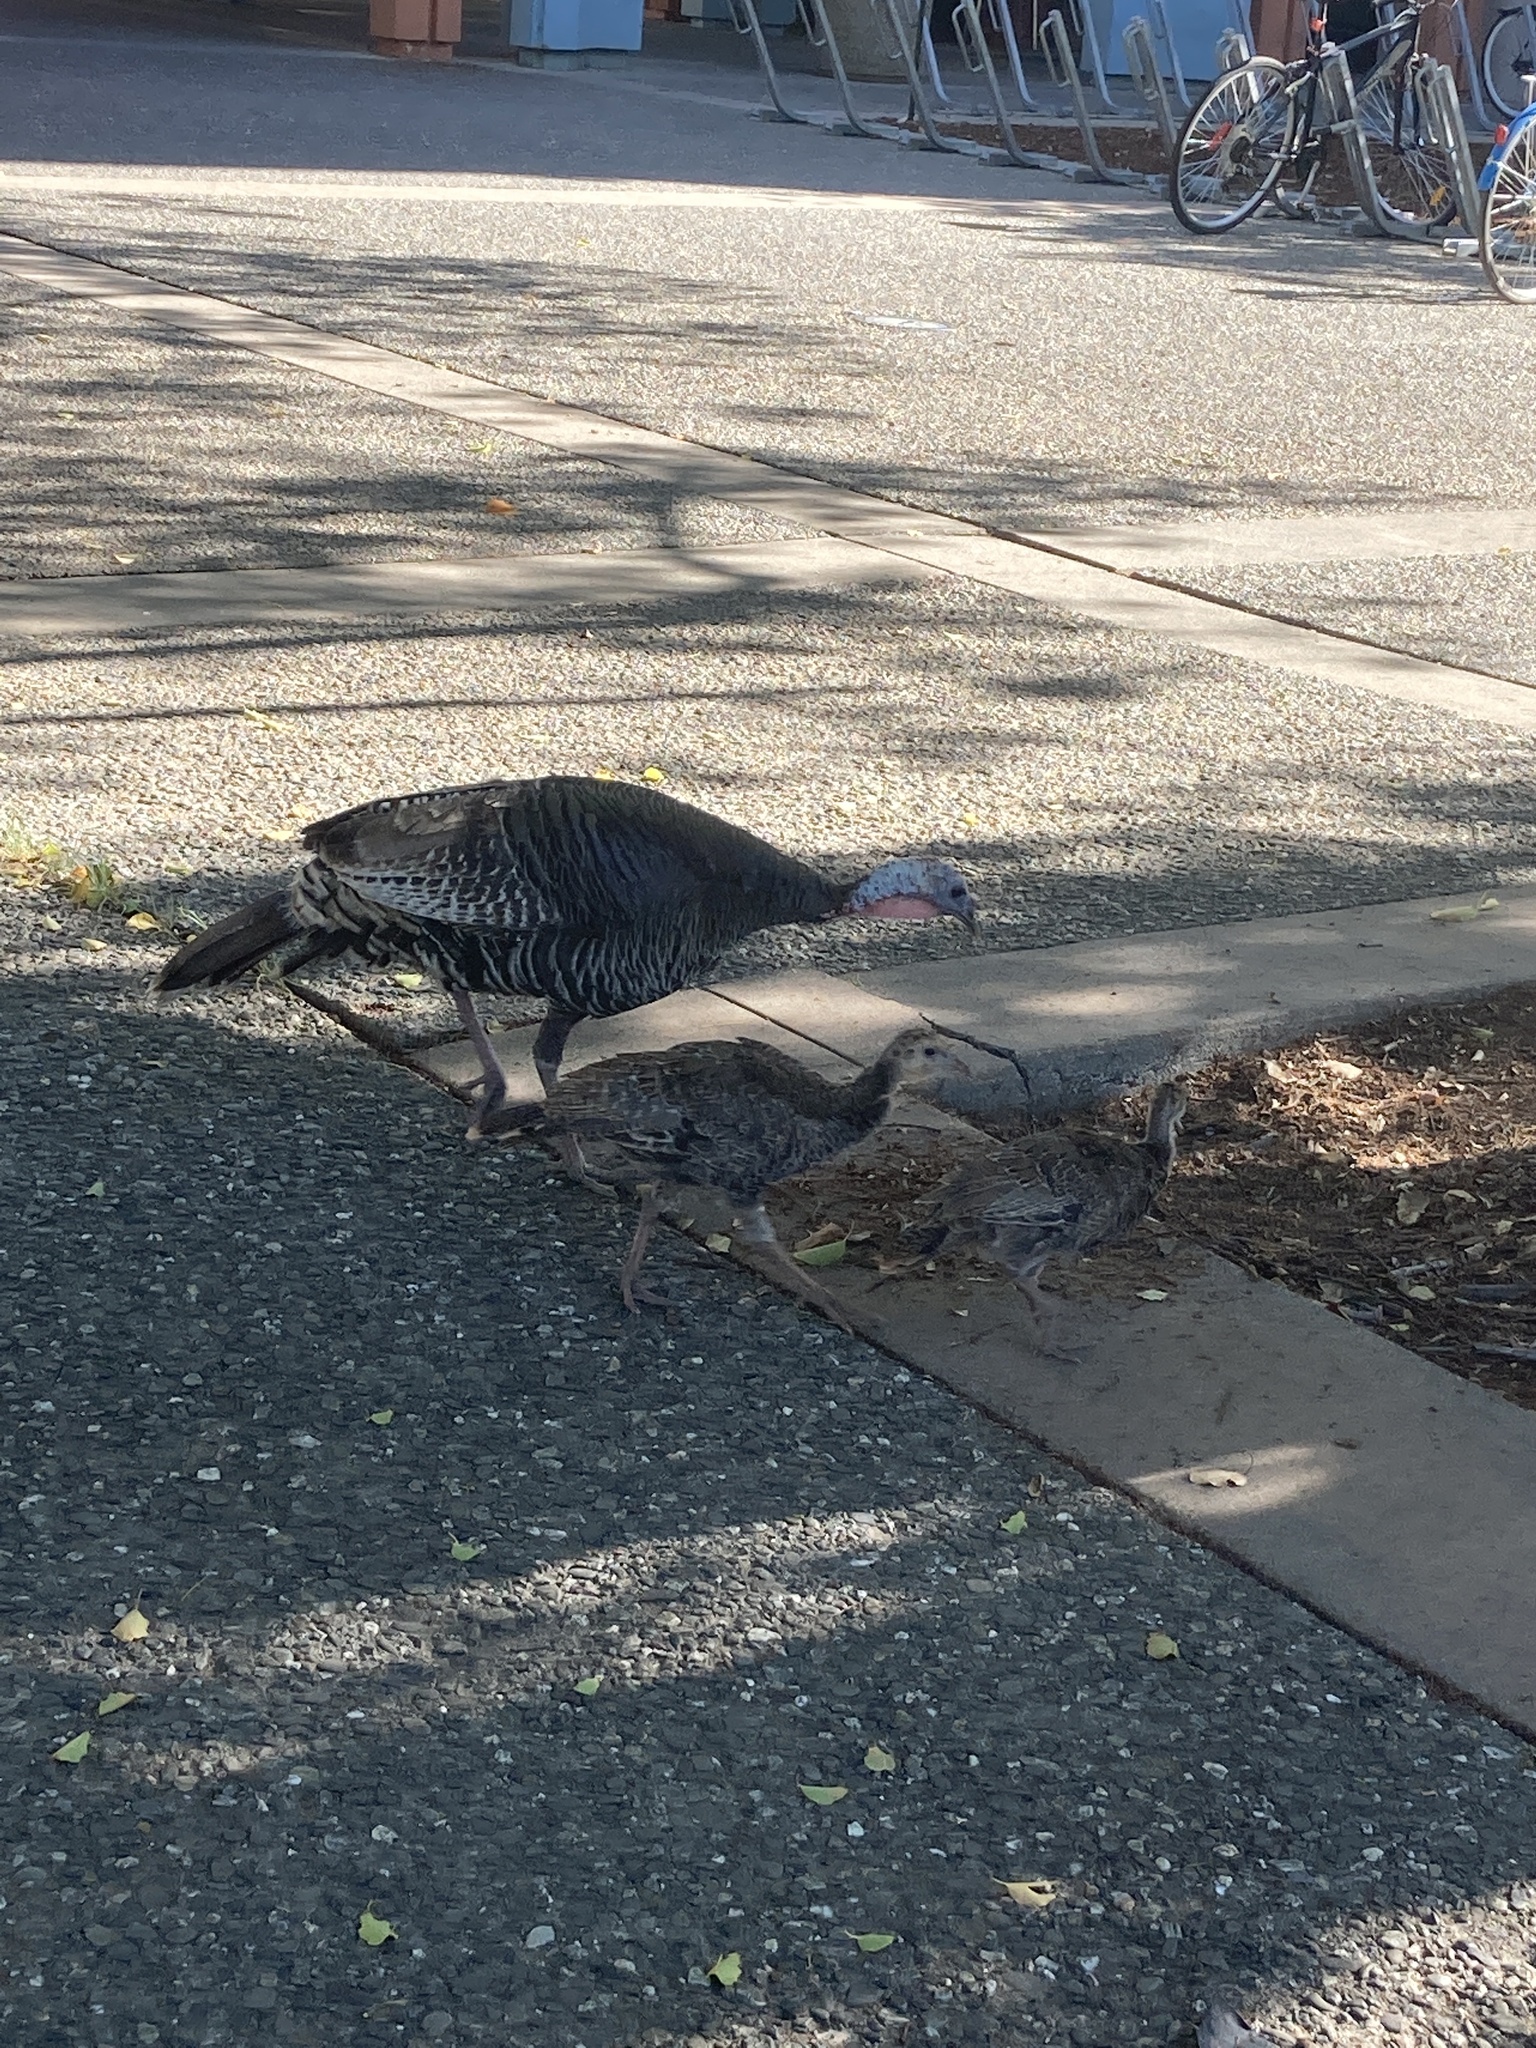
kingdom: Animalia
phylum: Chordata
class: Aves
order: Galliformes
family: Phasianidae
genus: Meleagris
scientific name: Meleagris gallopavo
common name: Wild turkey
